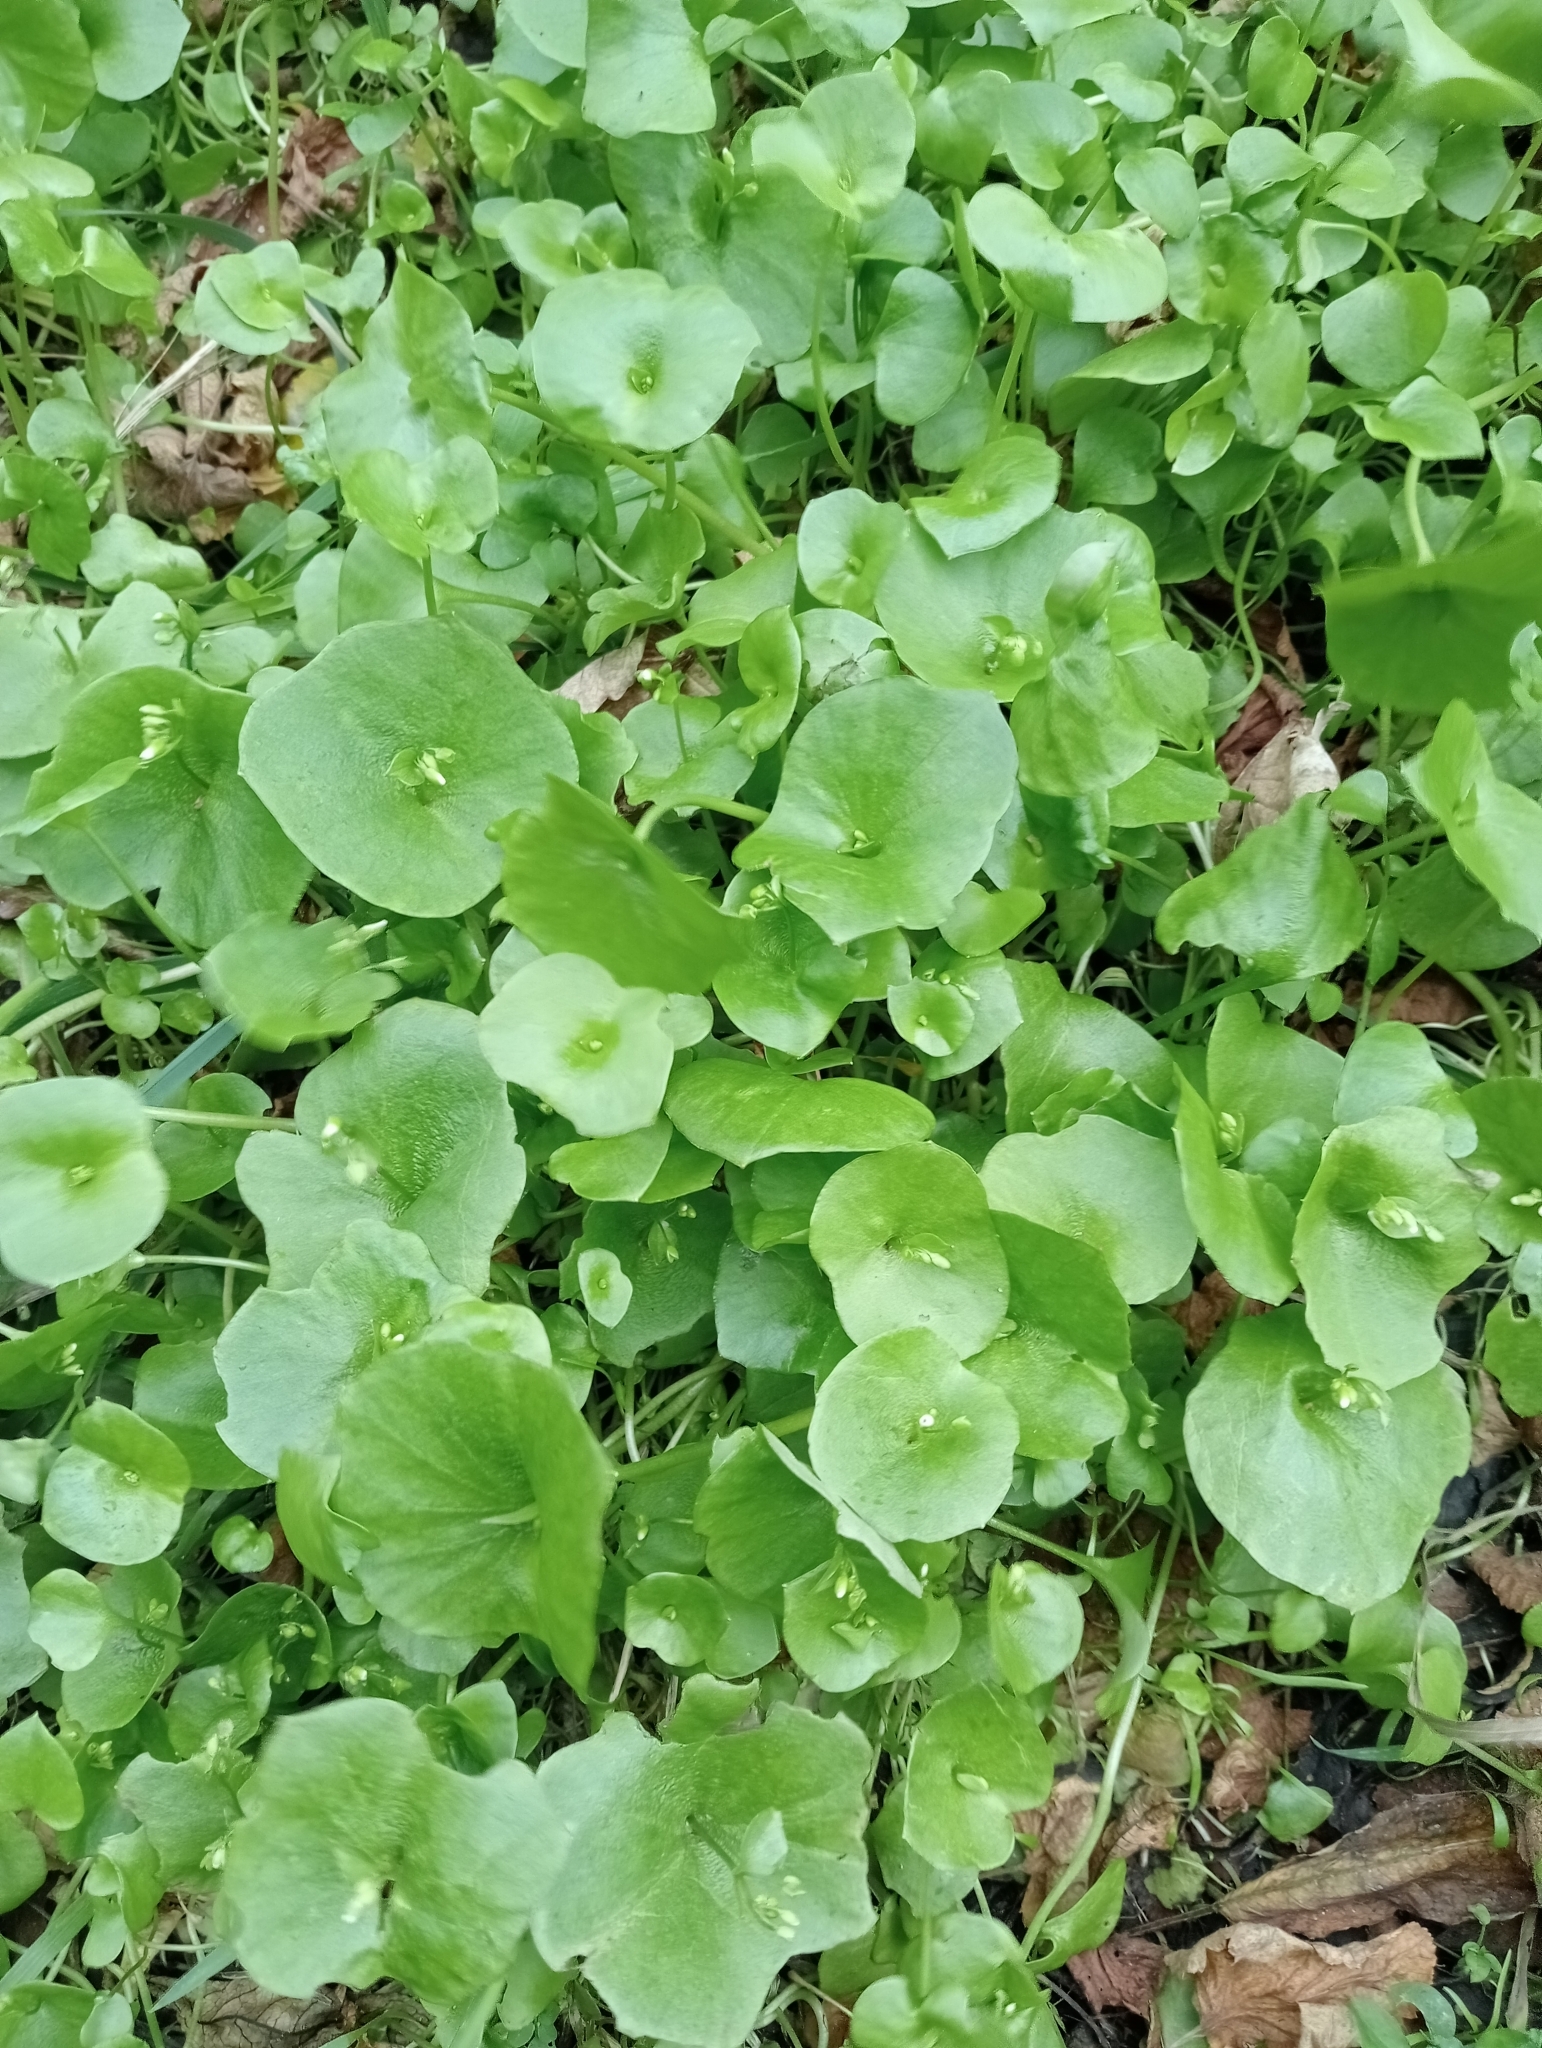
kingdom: Plantae
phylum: Tracheophyta
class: Magnoliopsida
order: Caryophyllales
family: Montiaceae
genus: Claytonia
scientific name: Claytonia perfoliata
